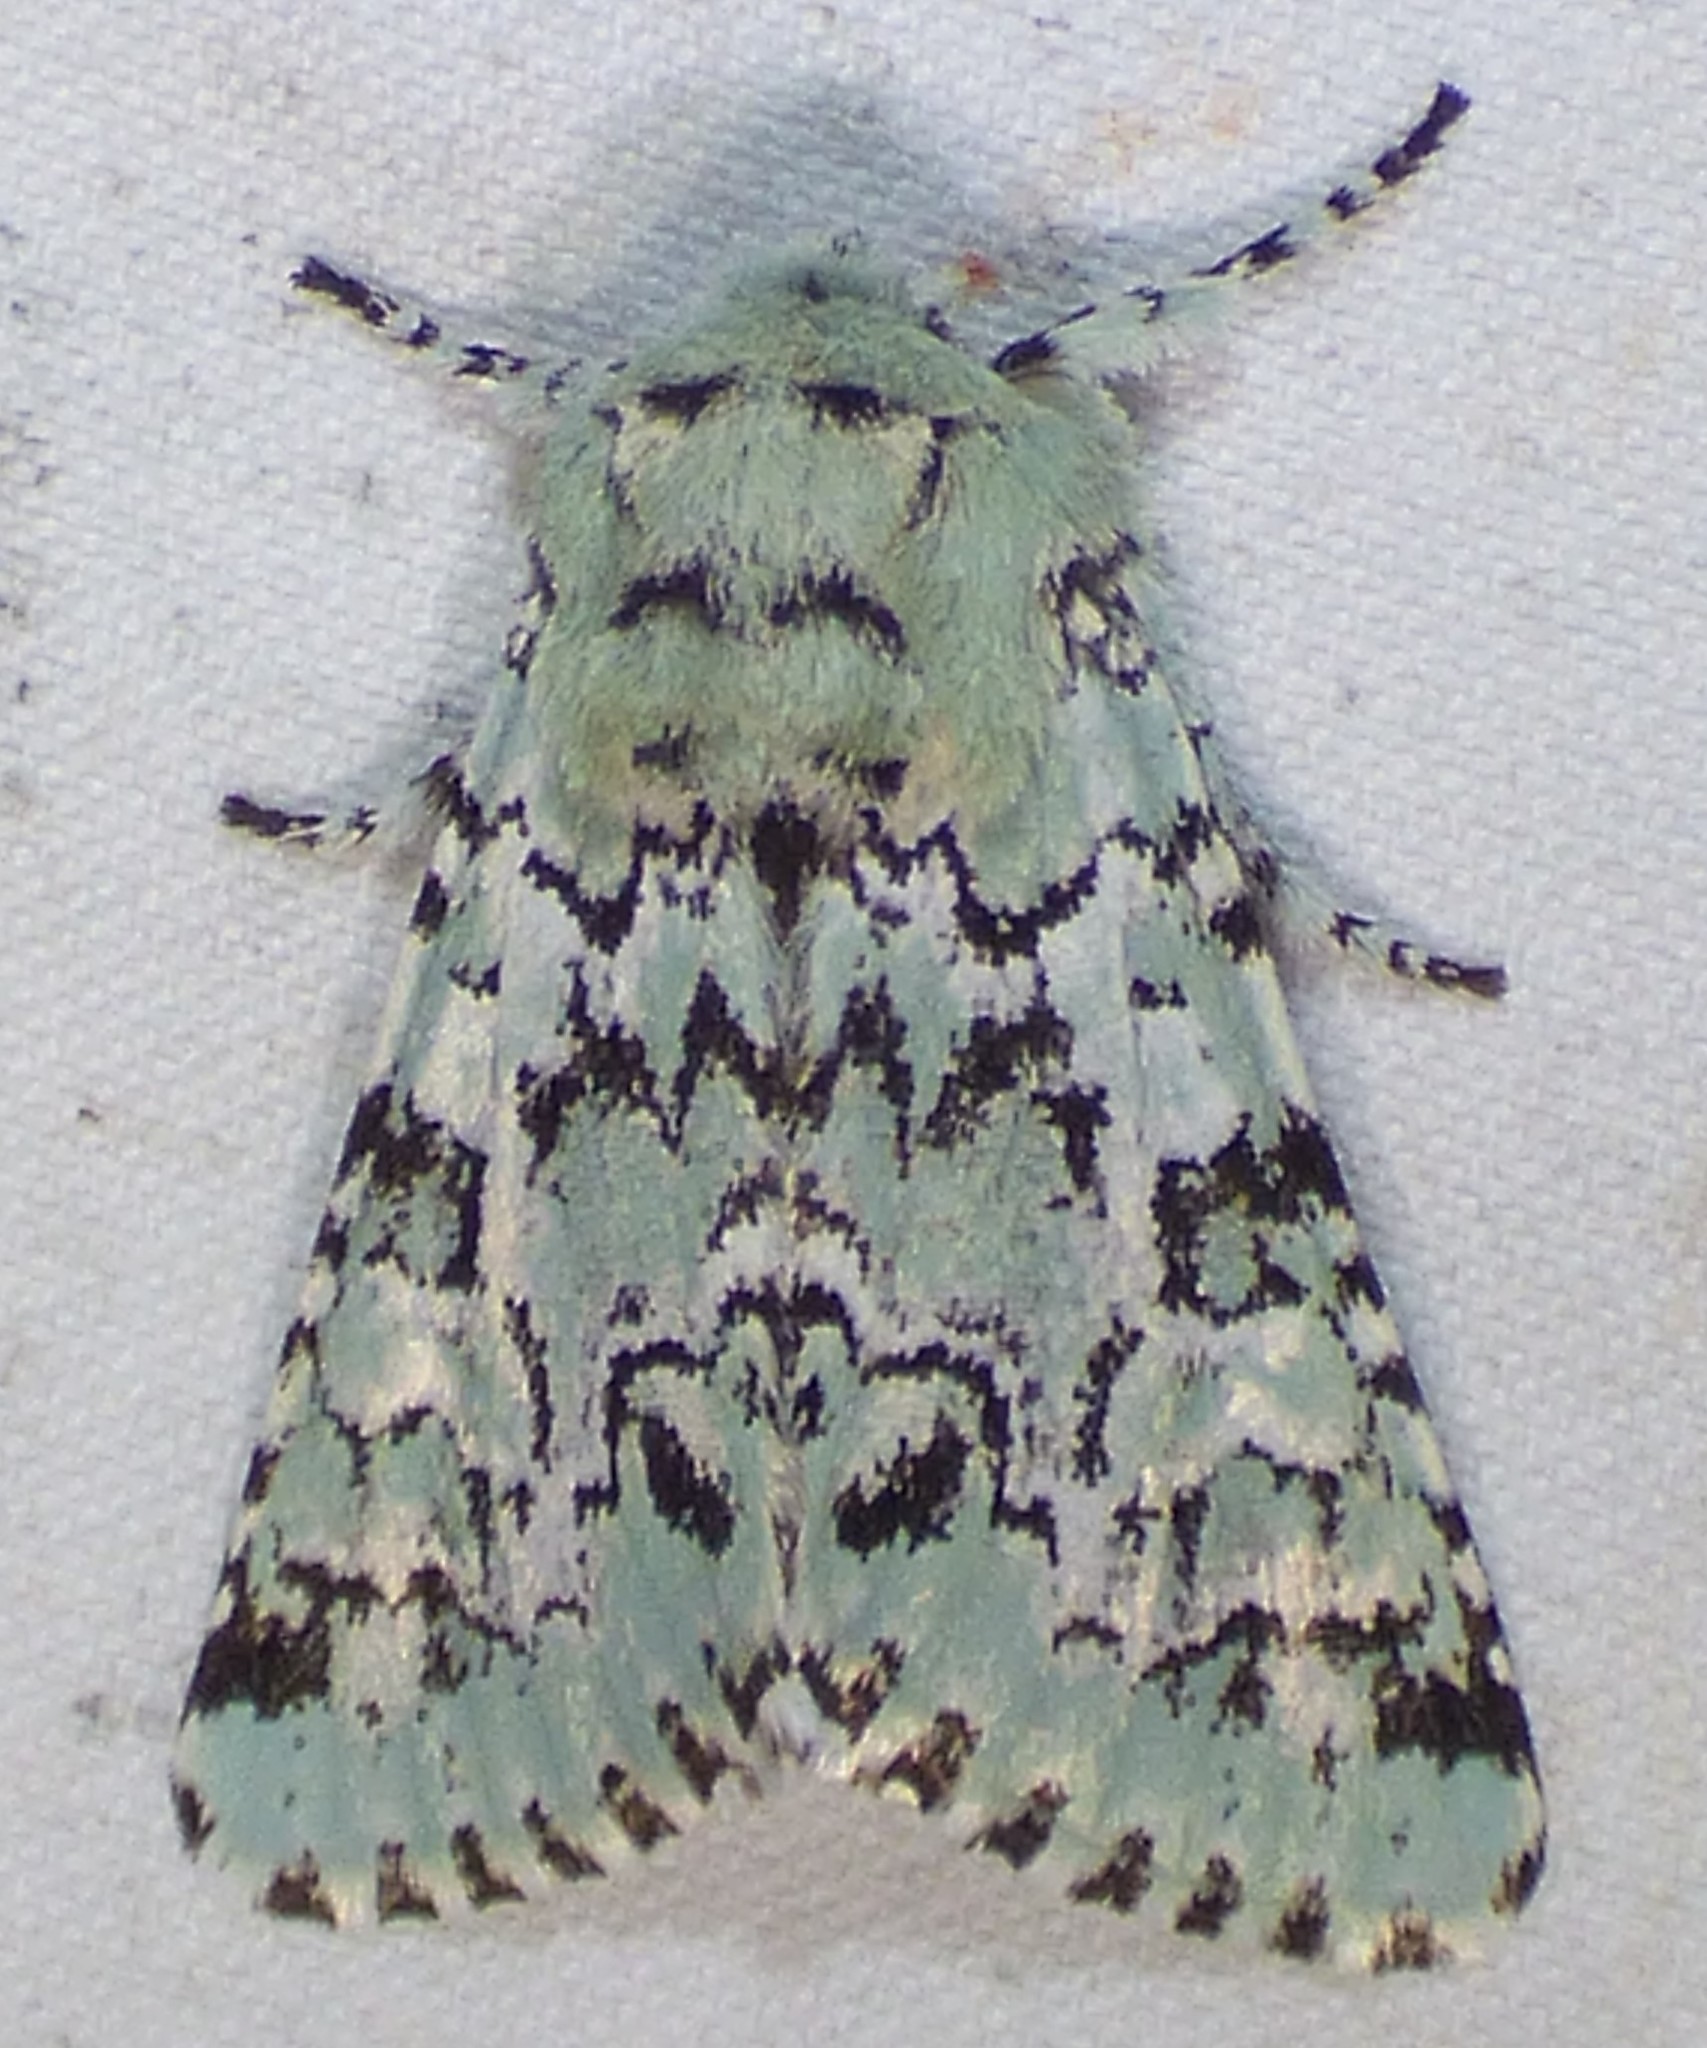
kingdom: Animalia
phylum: Arthropoda
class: Insecta
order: Lepidoptera
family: Noctuidae
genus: Feralia
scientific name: Feralia major
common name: Major sallow
